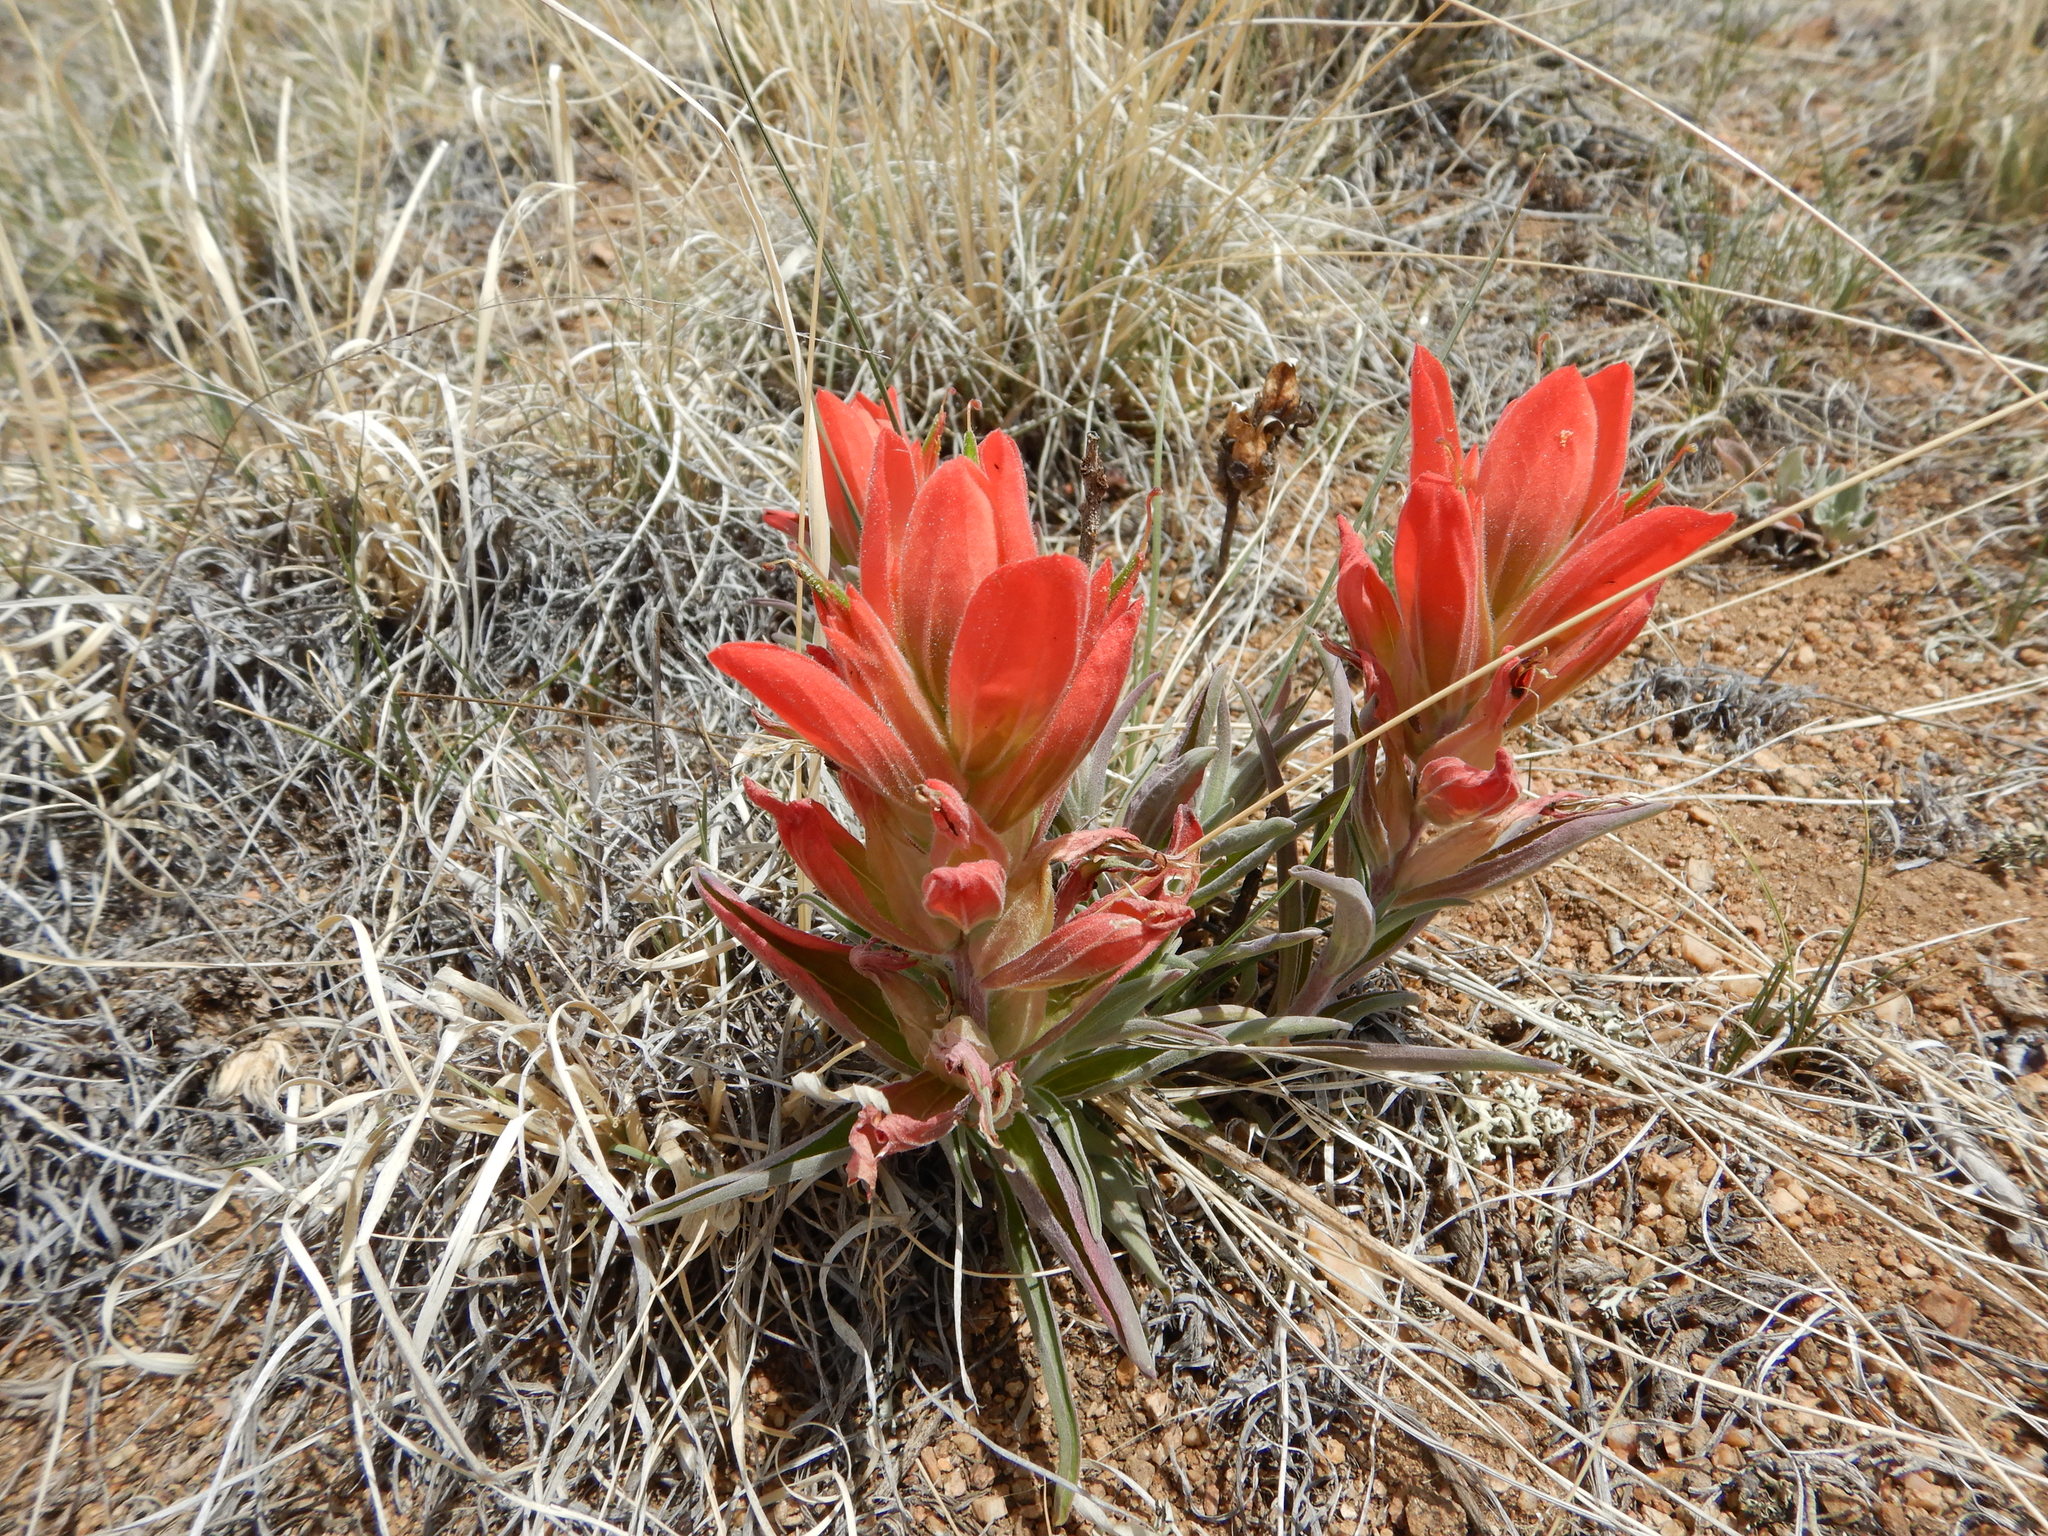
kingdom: Plantae
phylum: Tracheophyta
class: Magnoliopsida
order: Lamiales
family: Orobanchaceae
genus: Castilleja
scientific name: Castilleja integra
